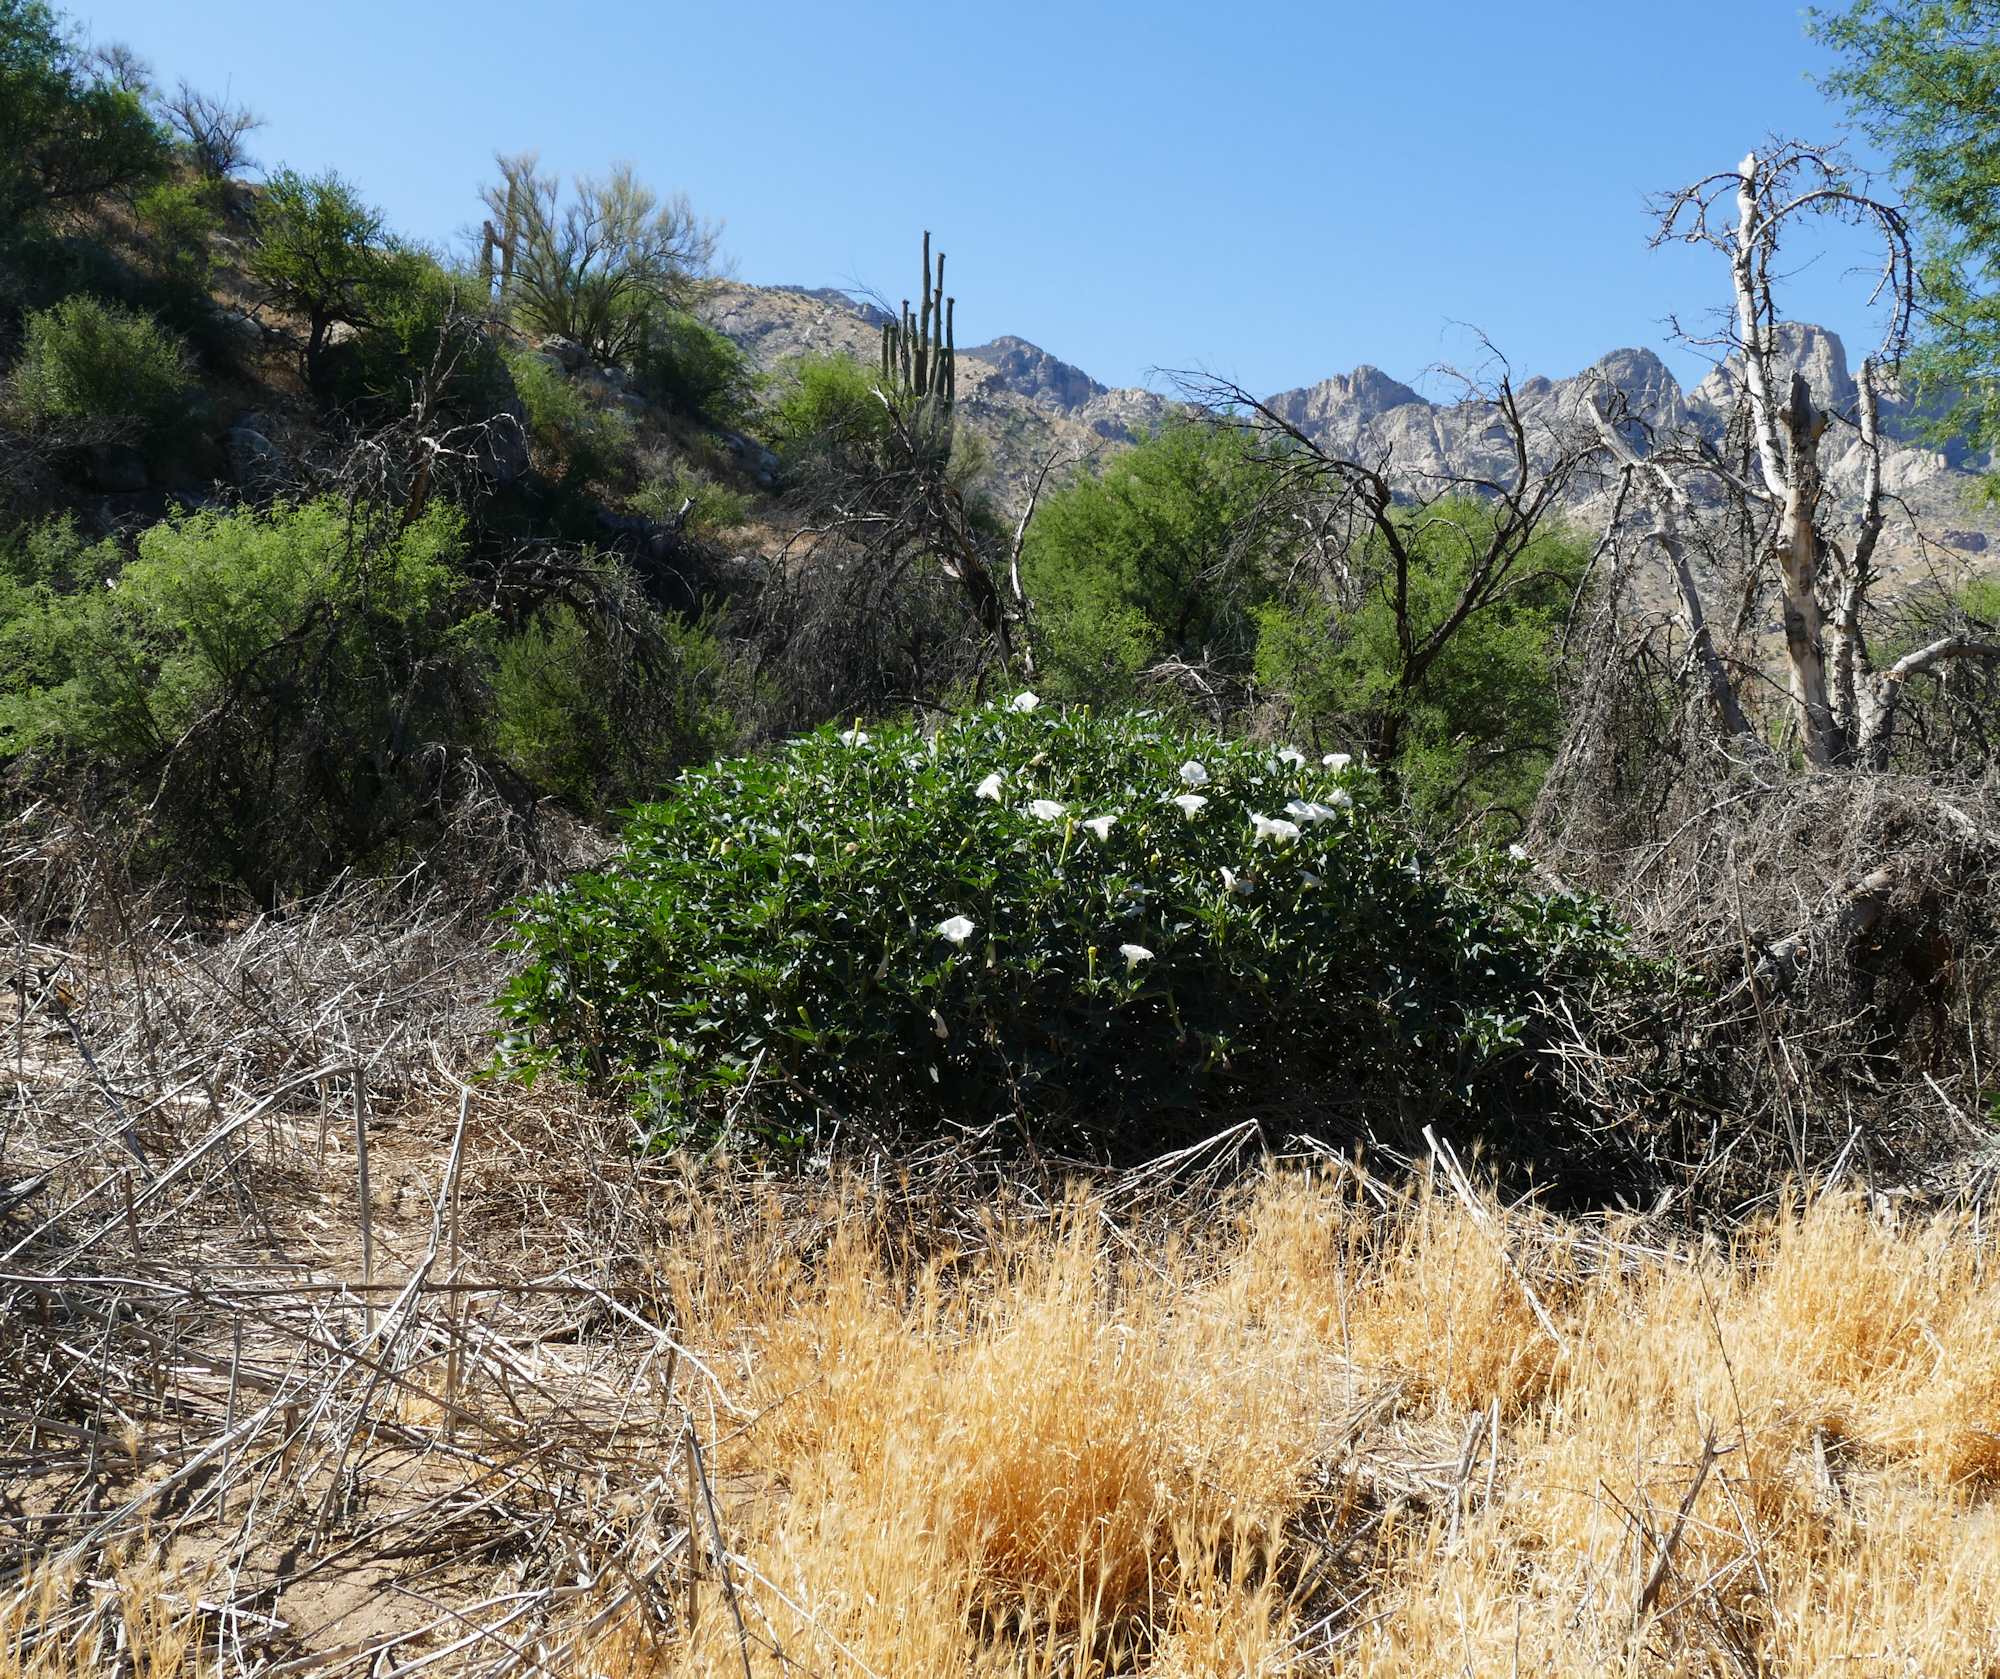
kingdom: Plantae
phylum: Tracheophyta
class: Magnoliopsida
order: Solanales
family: Solanaceae
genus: Datura
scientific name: Datura wrightii
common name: Sacred thorn-apple
